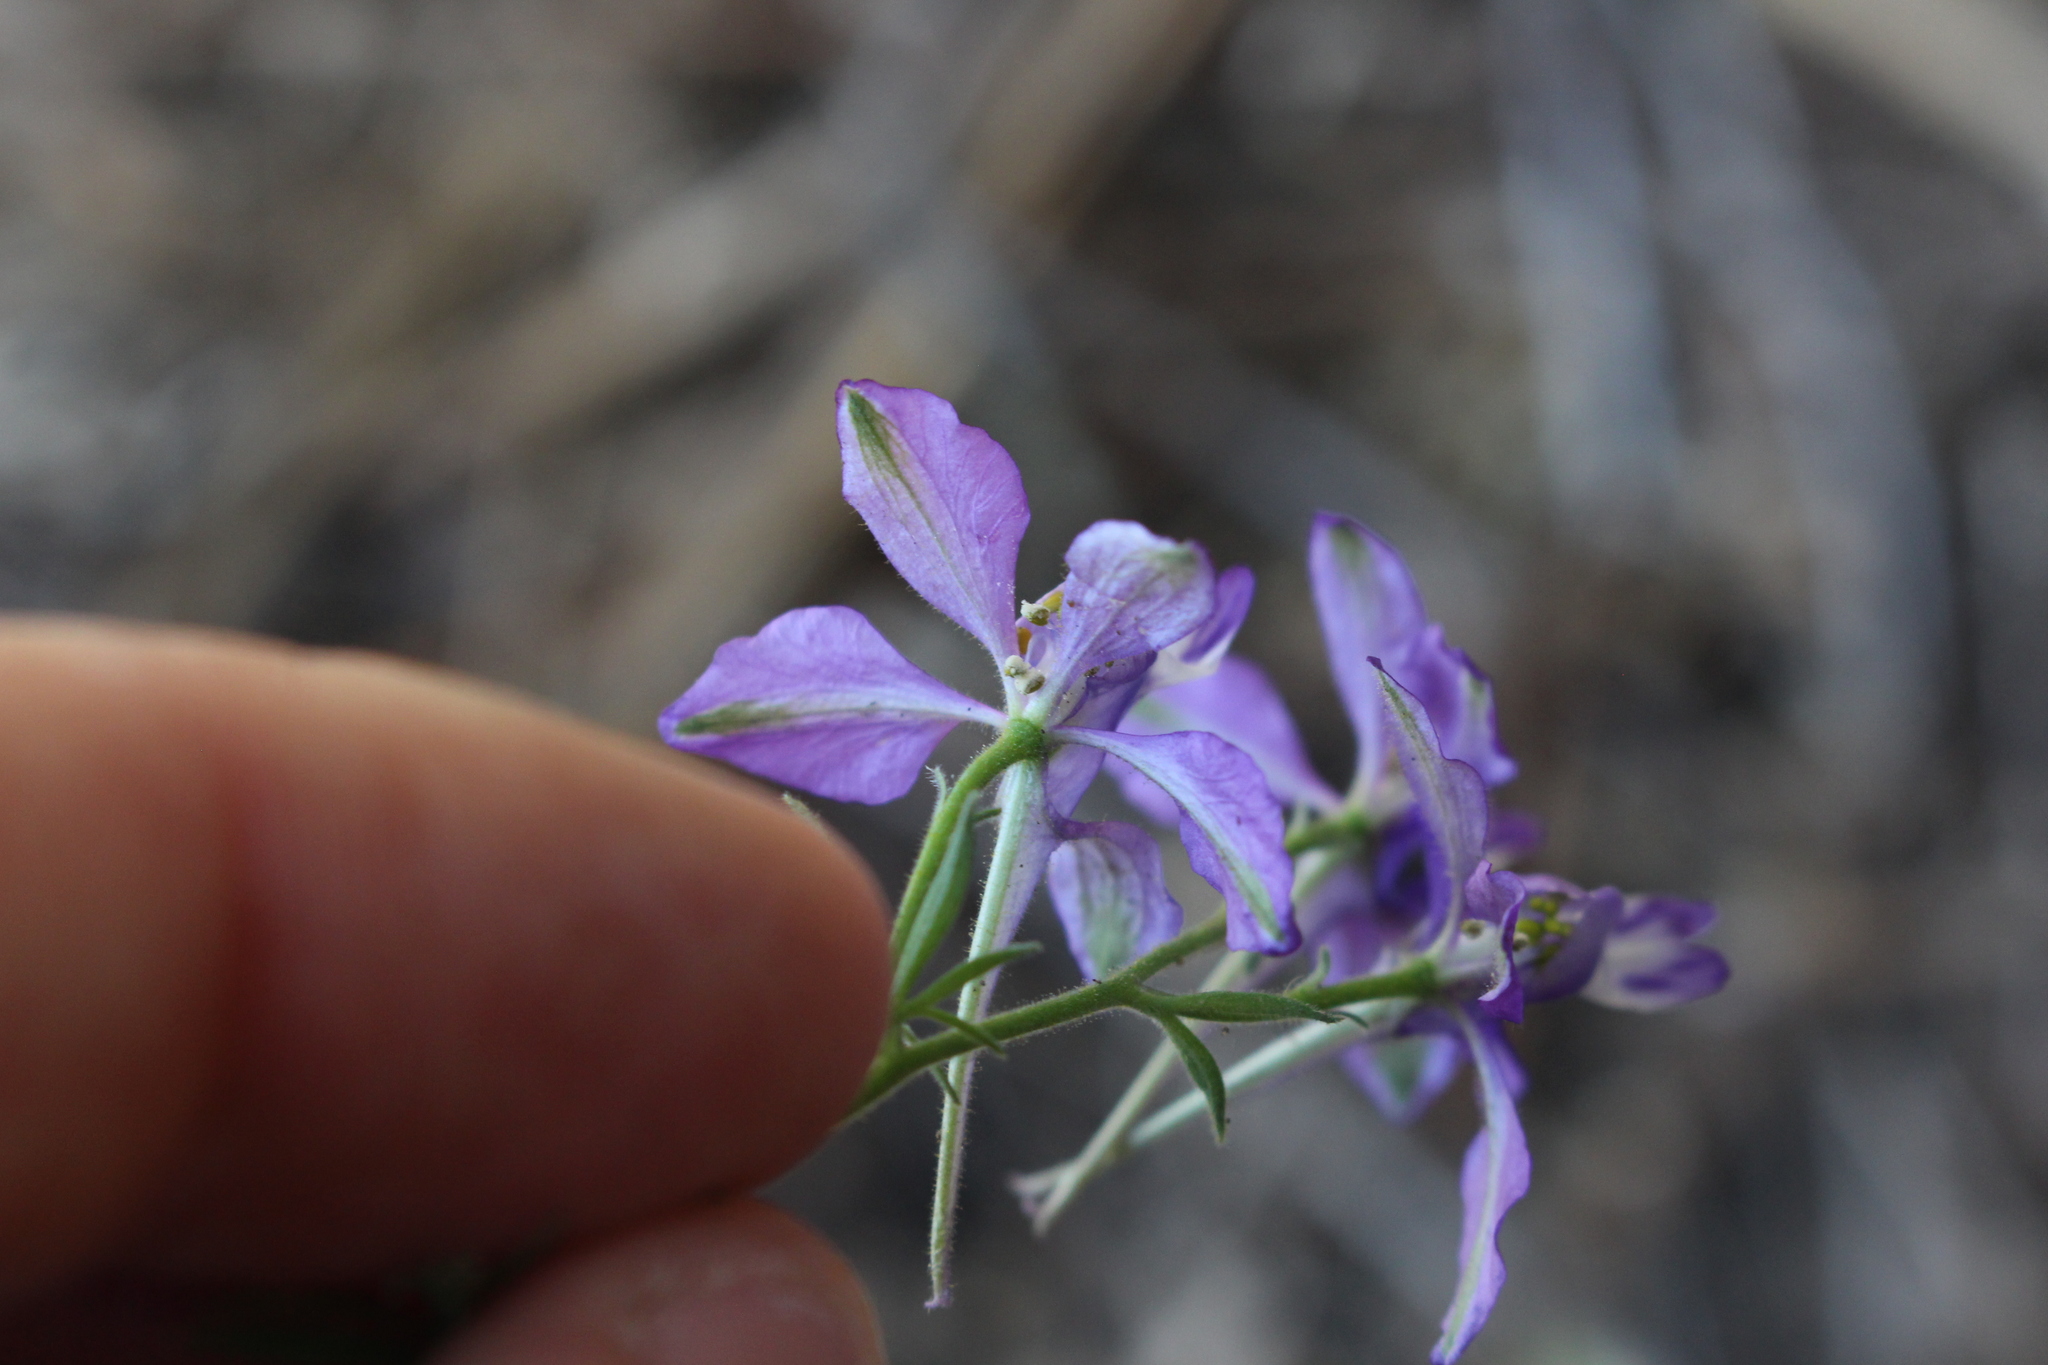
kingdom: Plantae
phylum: Tracheophyta
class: Magnoliopsida
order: Ranunculales
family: Ranunculaceae
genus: Delphinium
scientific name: Delphinium ajacis
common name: Doubtful knight's-spur
